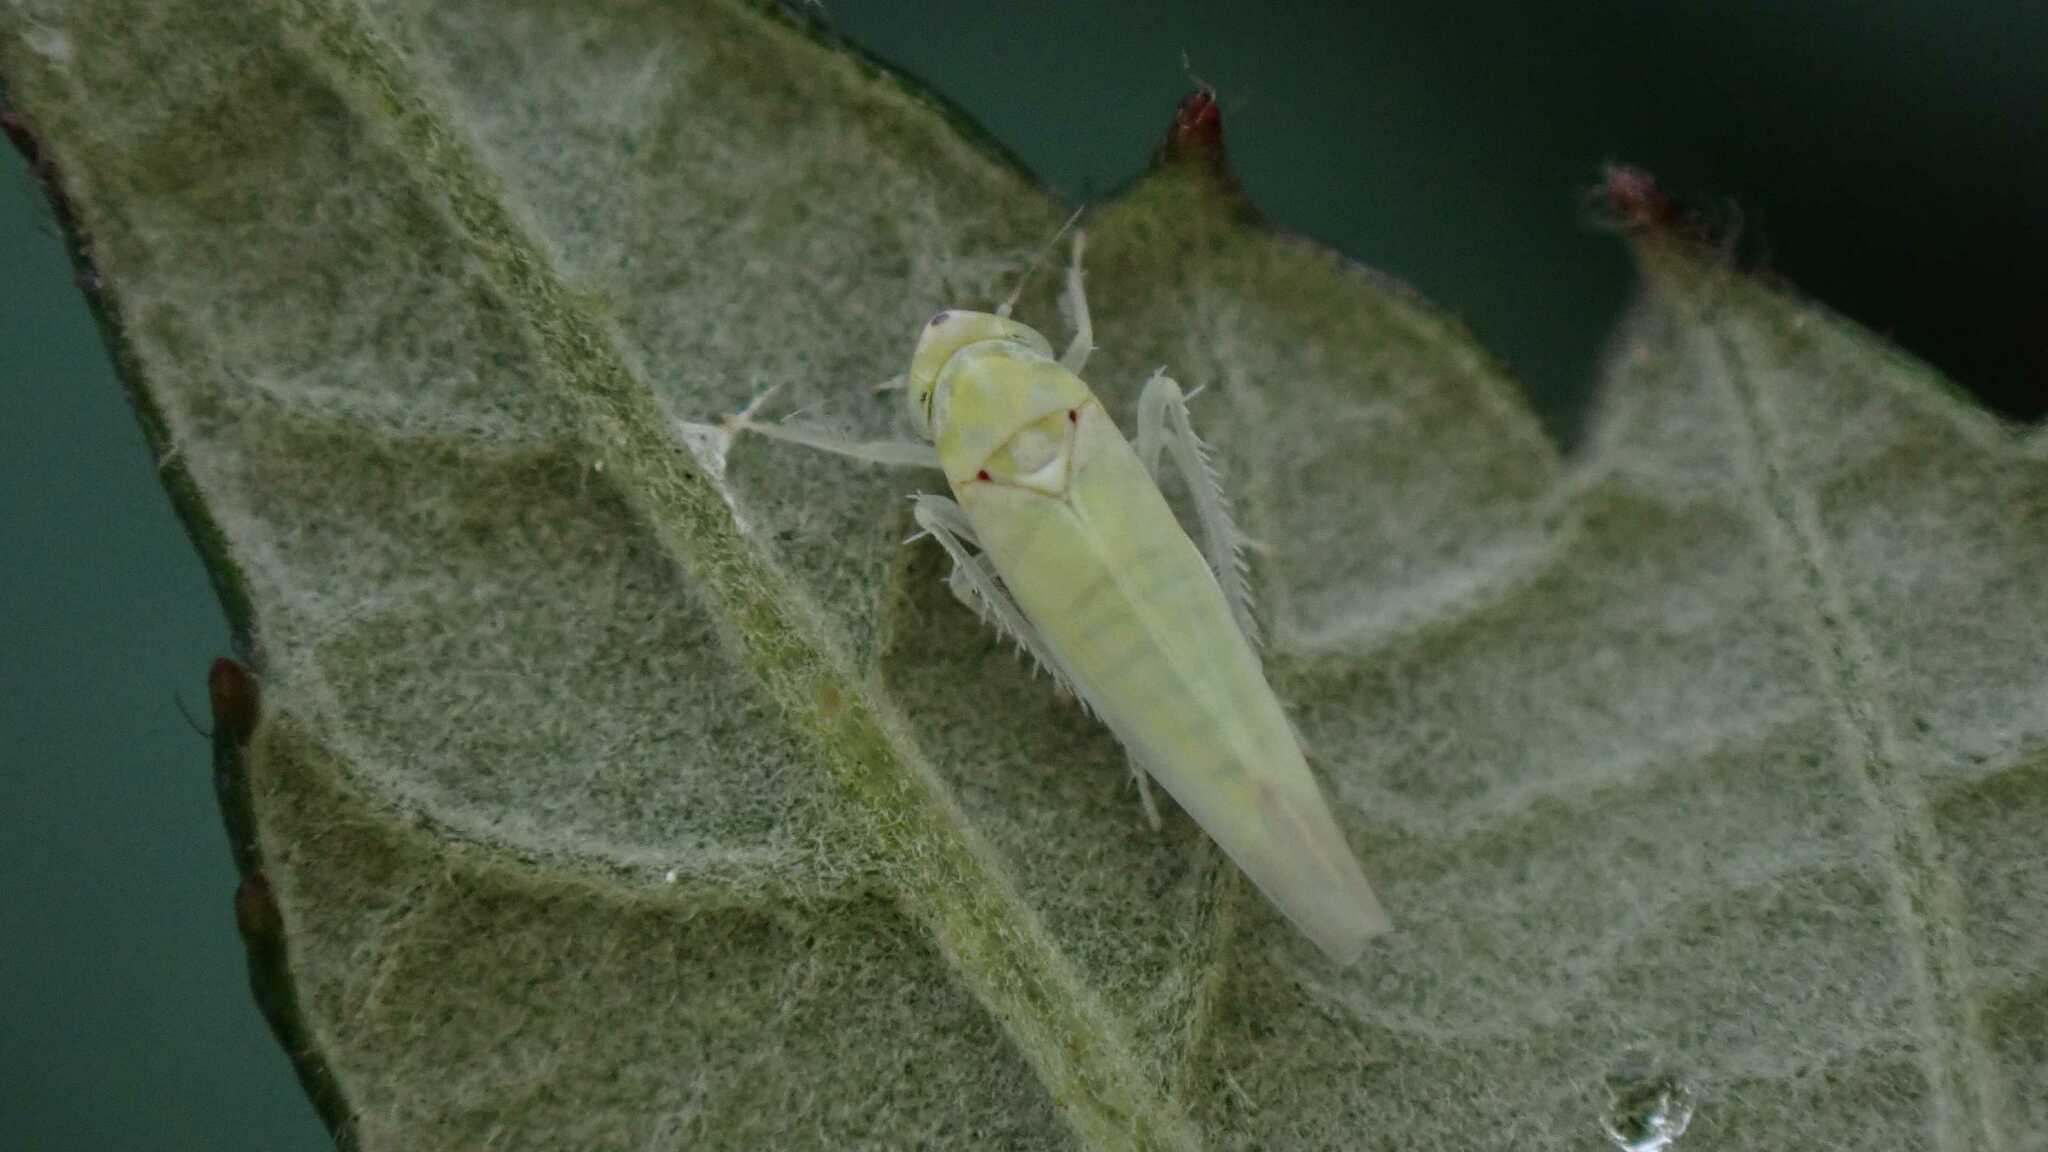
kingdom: Animalia
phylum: Arthropoda
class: Insecta
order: Hemiptera
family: Cicadellidae
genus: Zygina
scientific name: Zygina nivea
